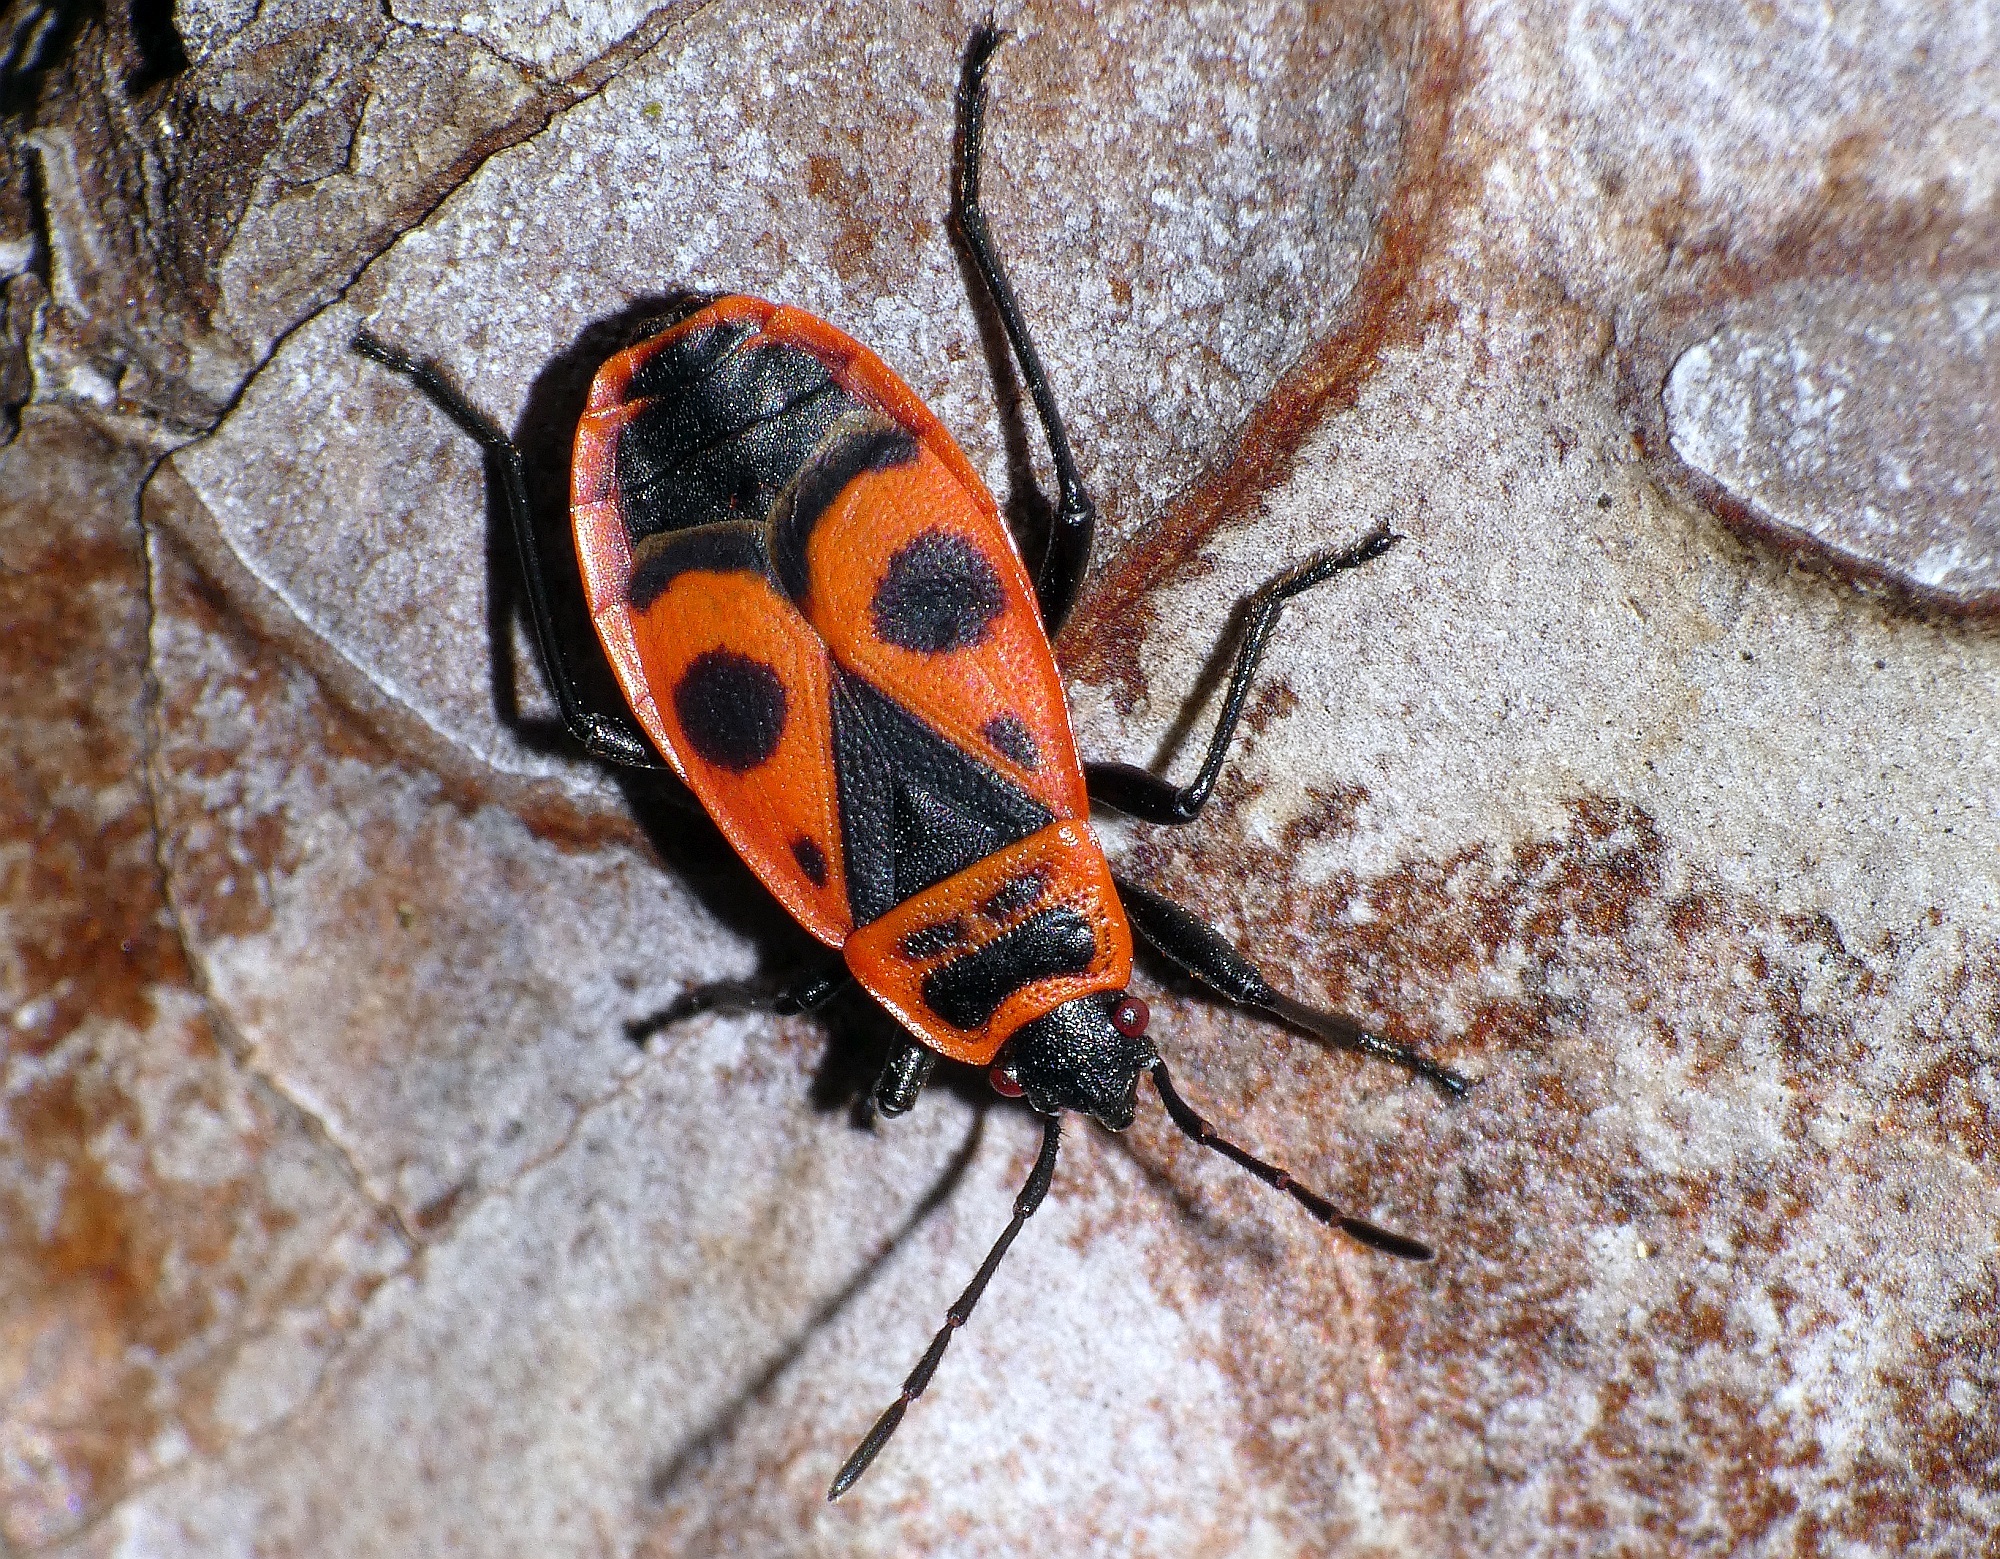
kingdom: Animalia
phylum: Arthropoda
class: Insecta
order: Hemiptera
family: Pyrrhocoridae
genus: Pyrrhocoris
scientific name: Pyrrhocoris apterus
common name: Firebug
